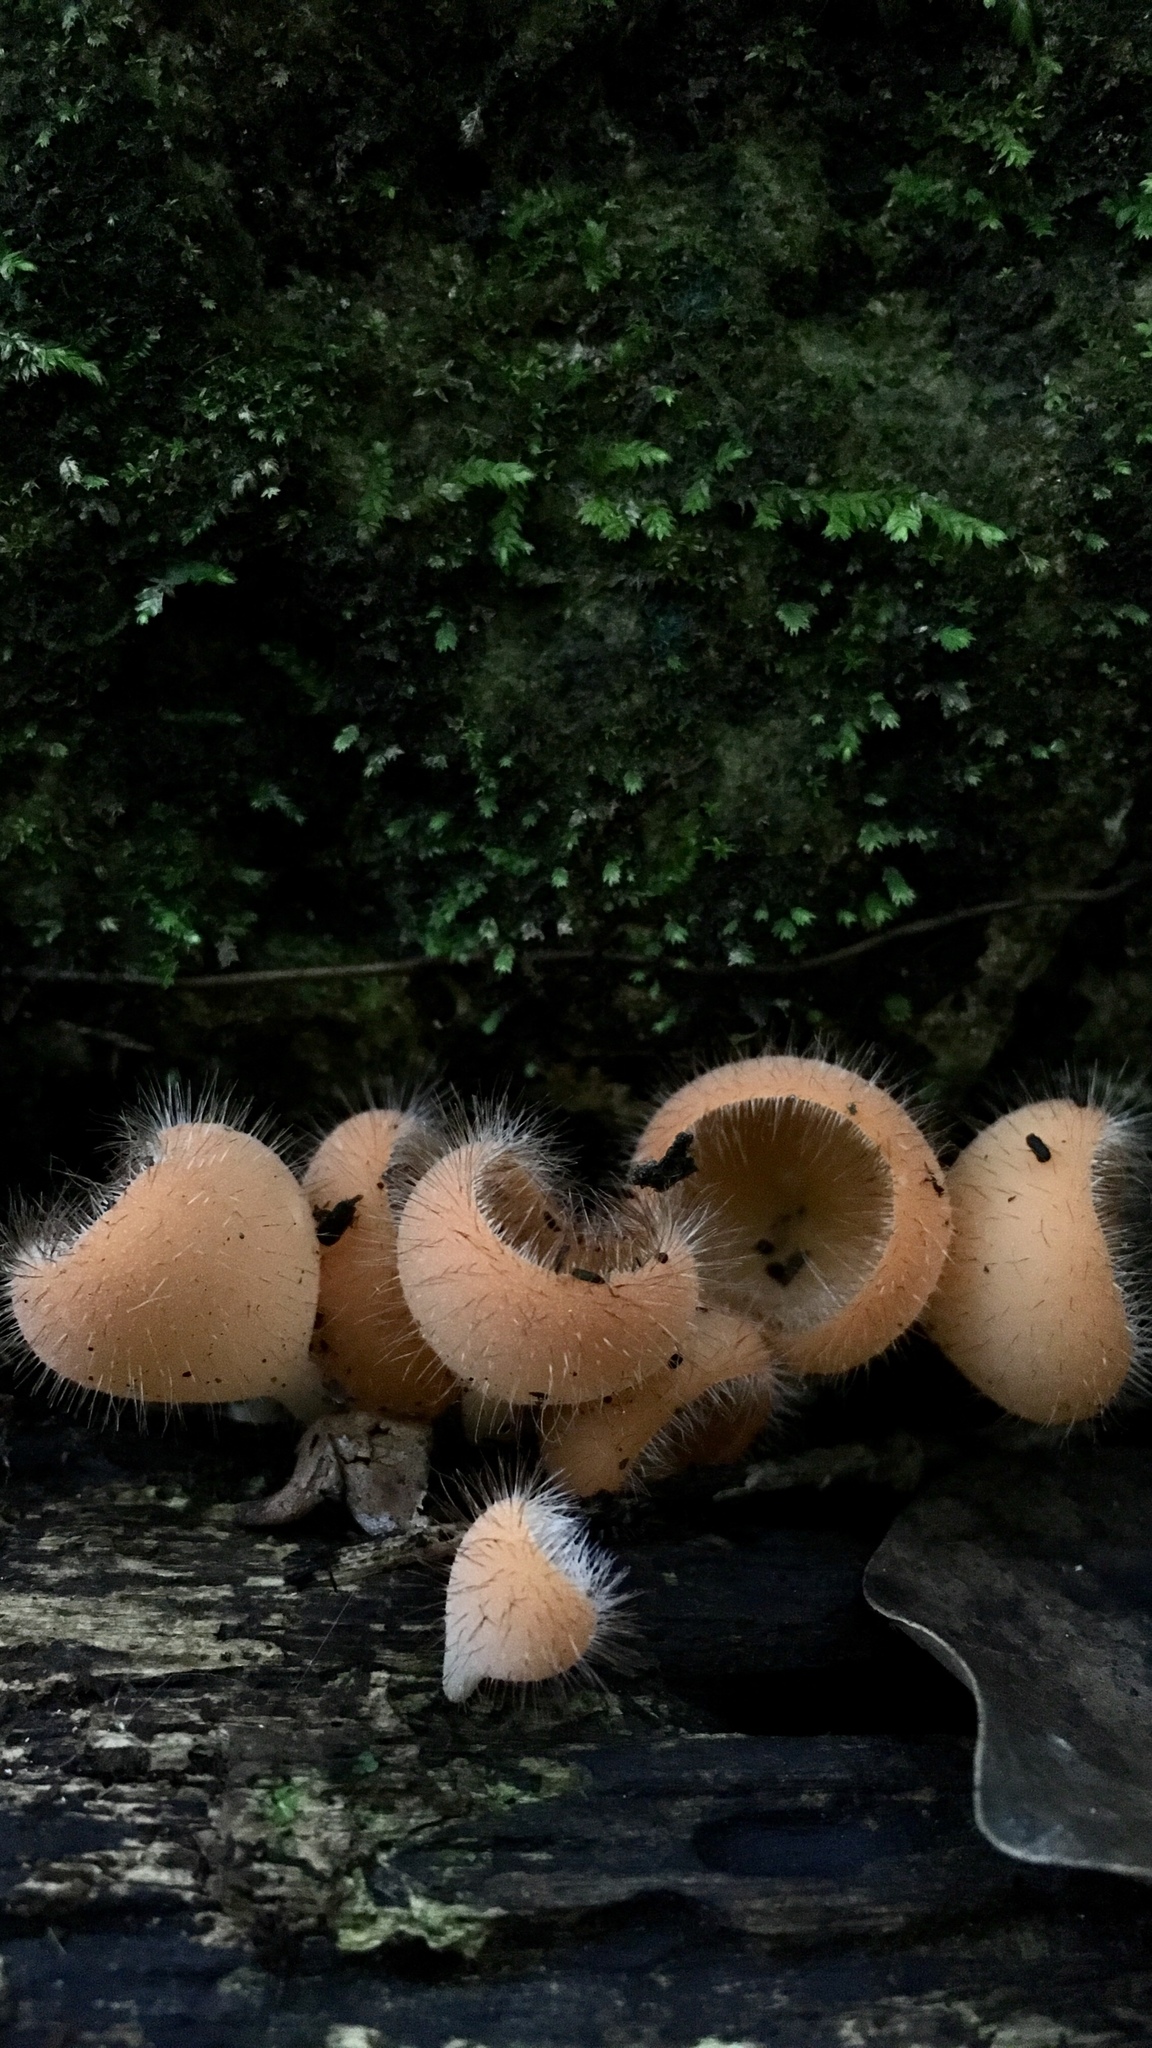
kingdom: Fungi
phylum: Ascomycota
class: Pezizomycetes
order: Pezizales
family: Sarcoscyphaceae
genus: Cookeina
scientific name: Cookeina tricholoma
